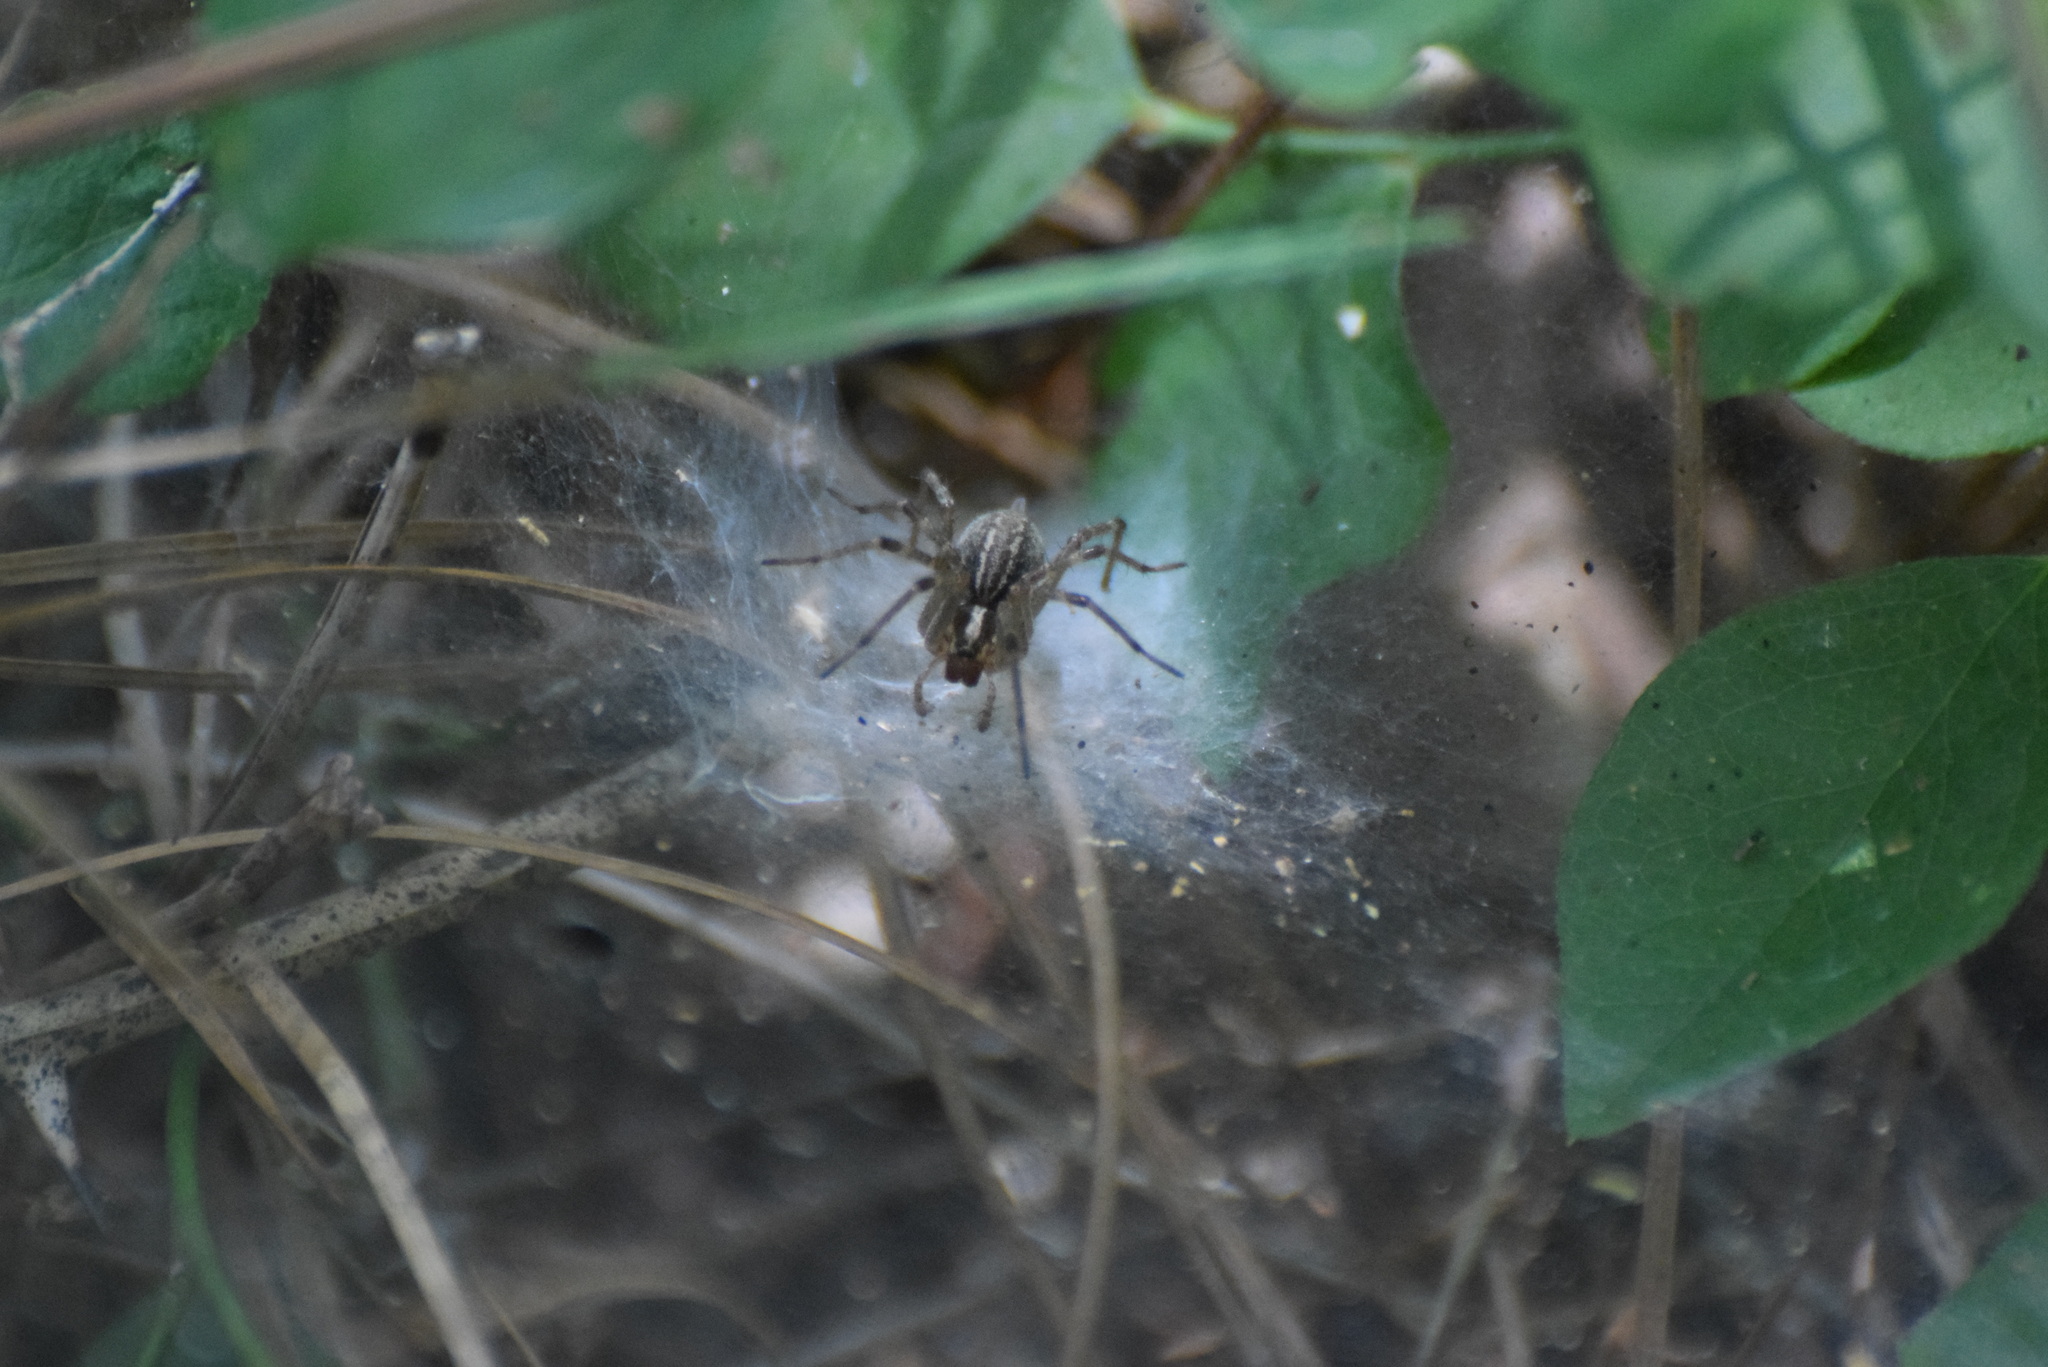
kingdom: Animalia
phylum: Arthropoda
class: Arachnida
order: Araneae
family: Agelenidae
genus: Agelenopsis
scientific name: Agelenopsis
